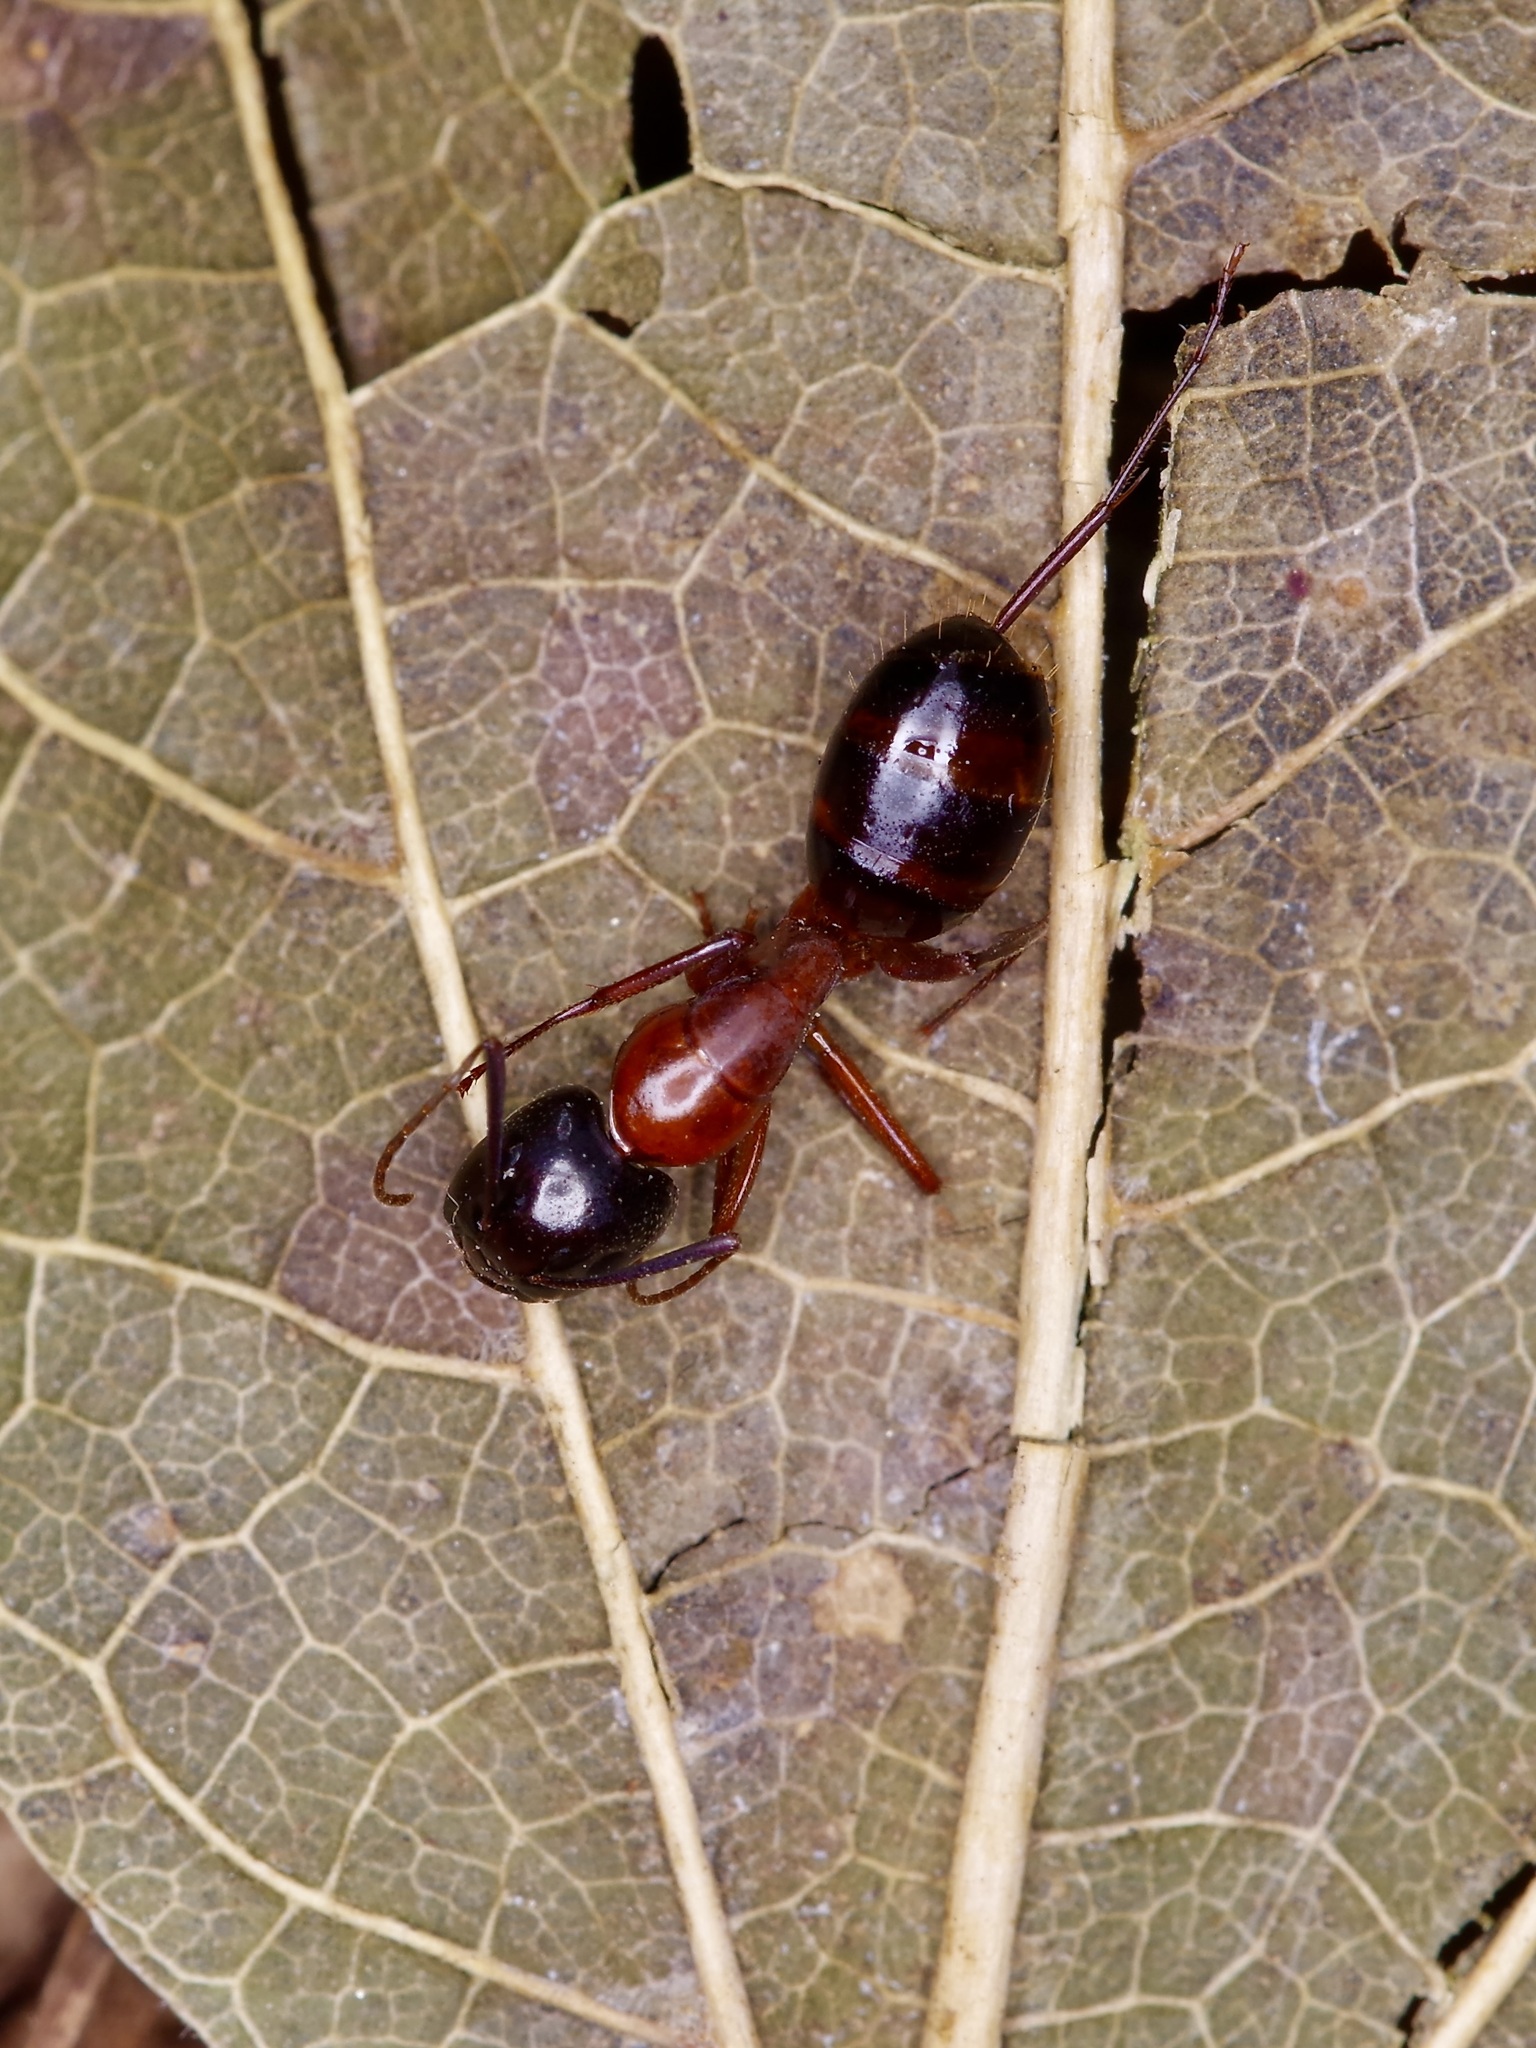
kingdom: Animalia
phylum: Arthropoda
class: Insecta
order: Hymenoptera
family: Formicidae
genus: Camponotus
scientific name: Camponotus texanus
